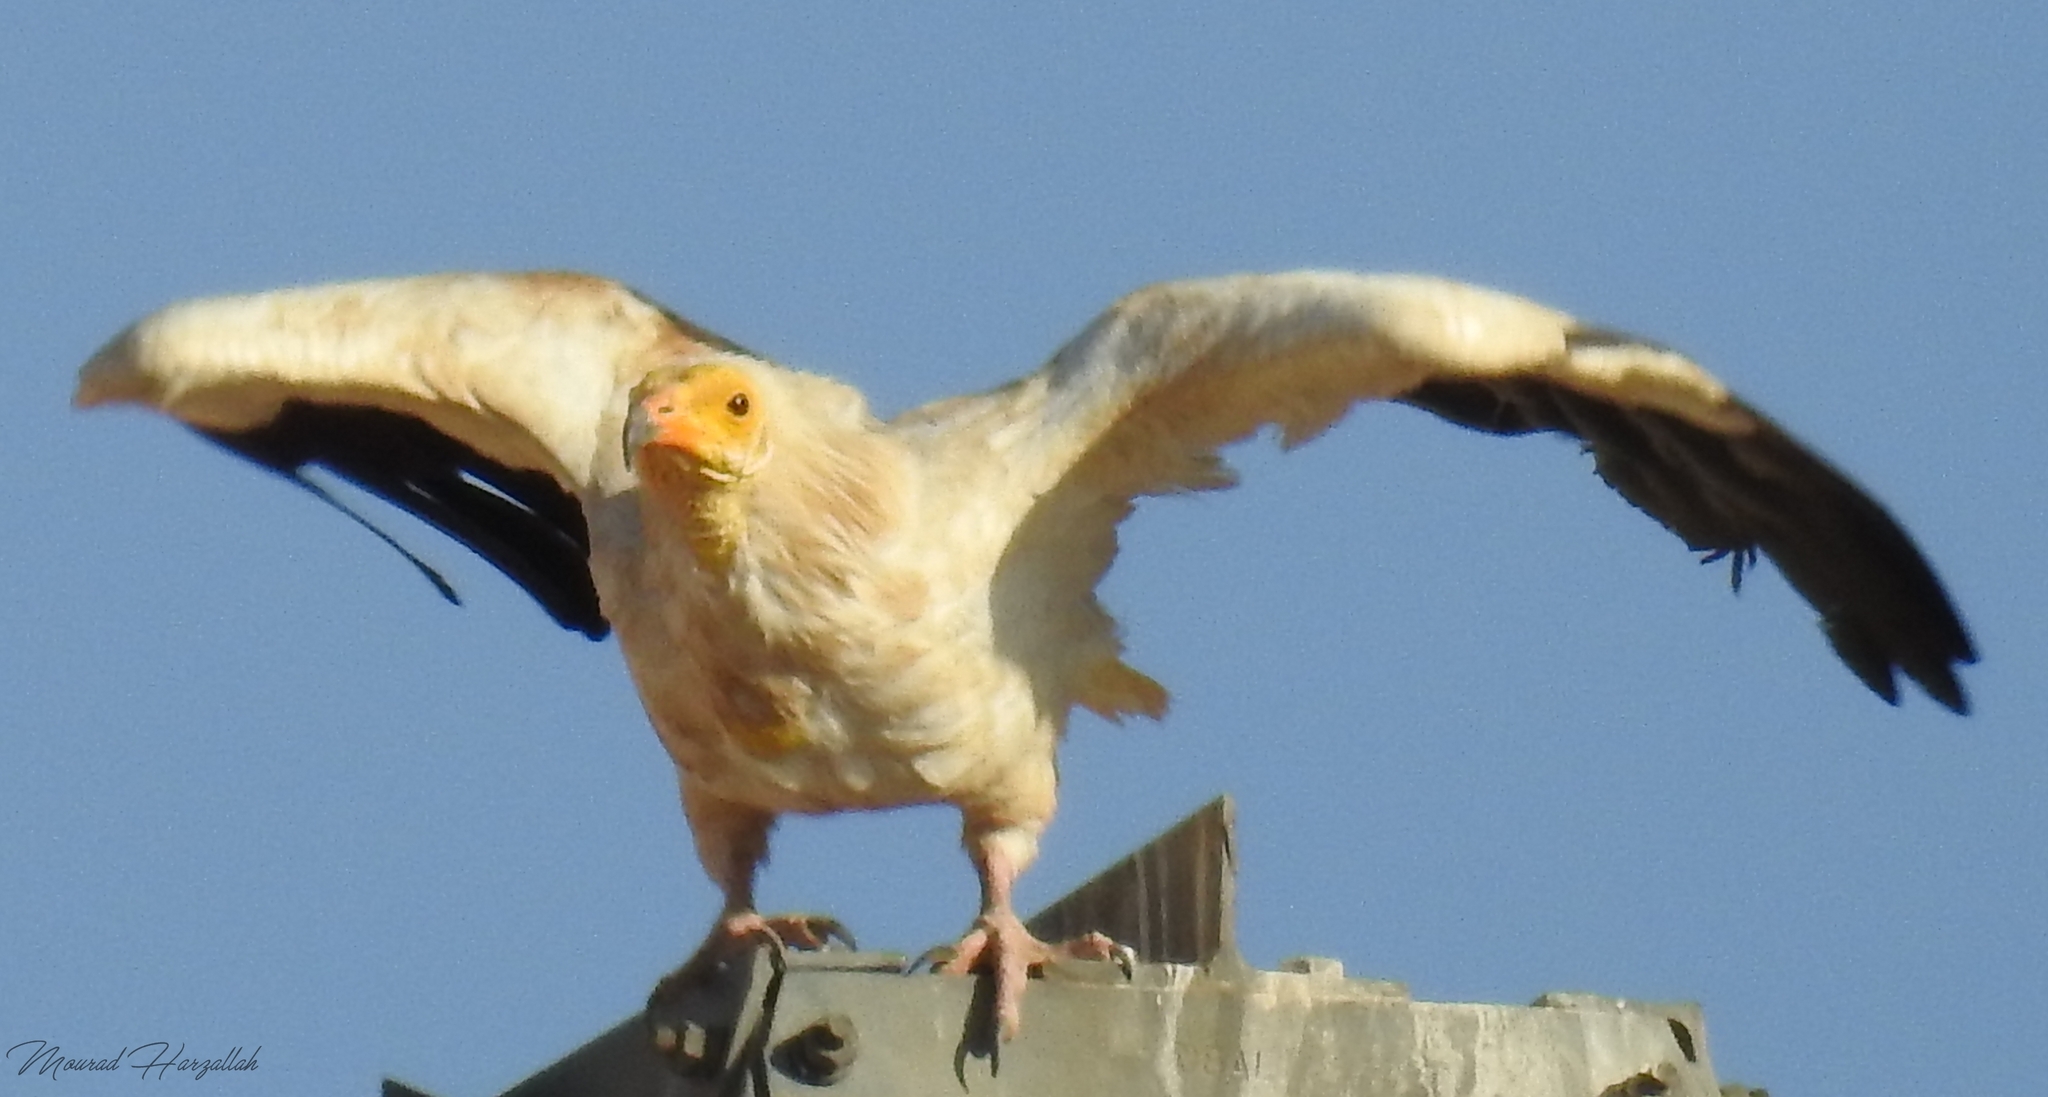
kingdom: Animalia
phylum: Chordata
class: Aves
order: Accipitriformes
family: Accipitridae
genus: Neophron
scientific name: Neophron percnopterus
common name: Egyptian vulture
